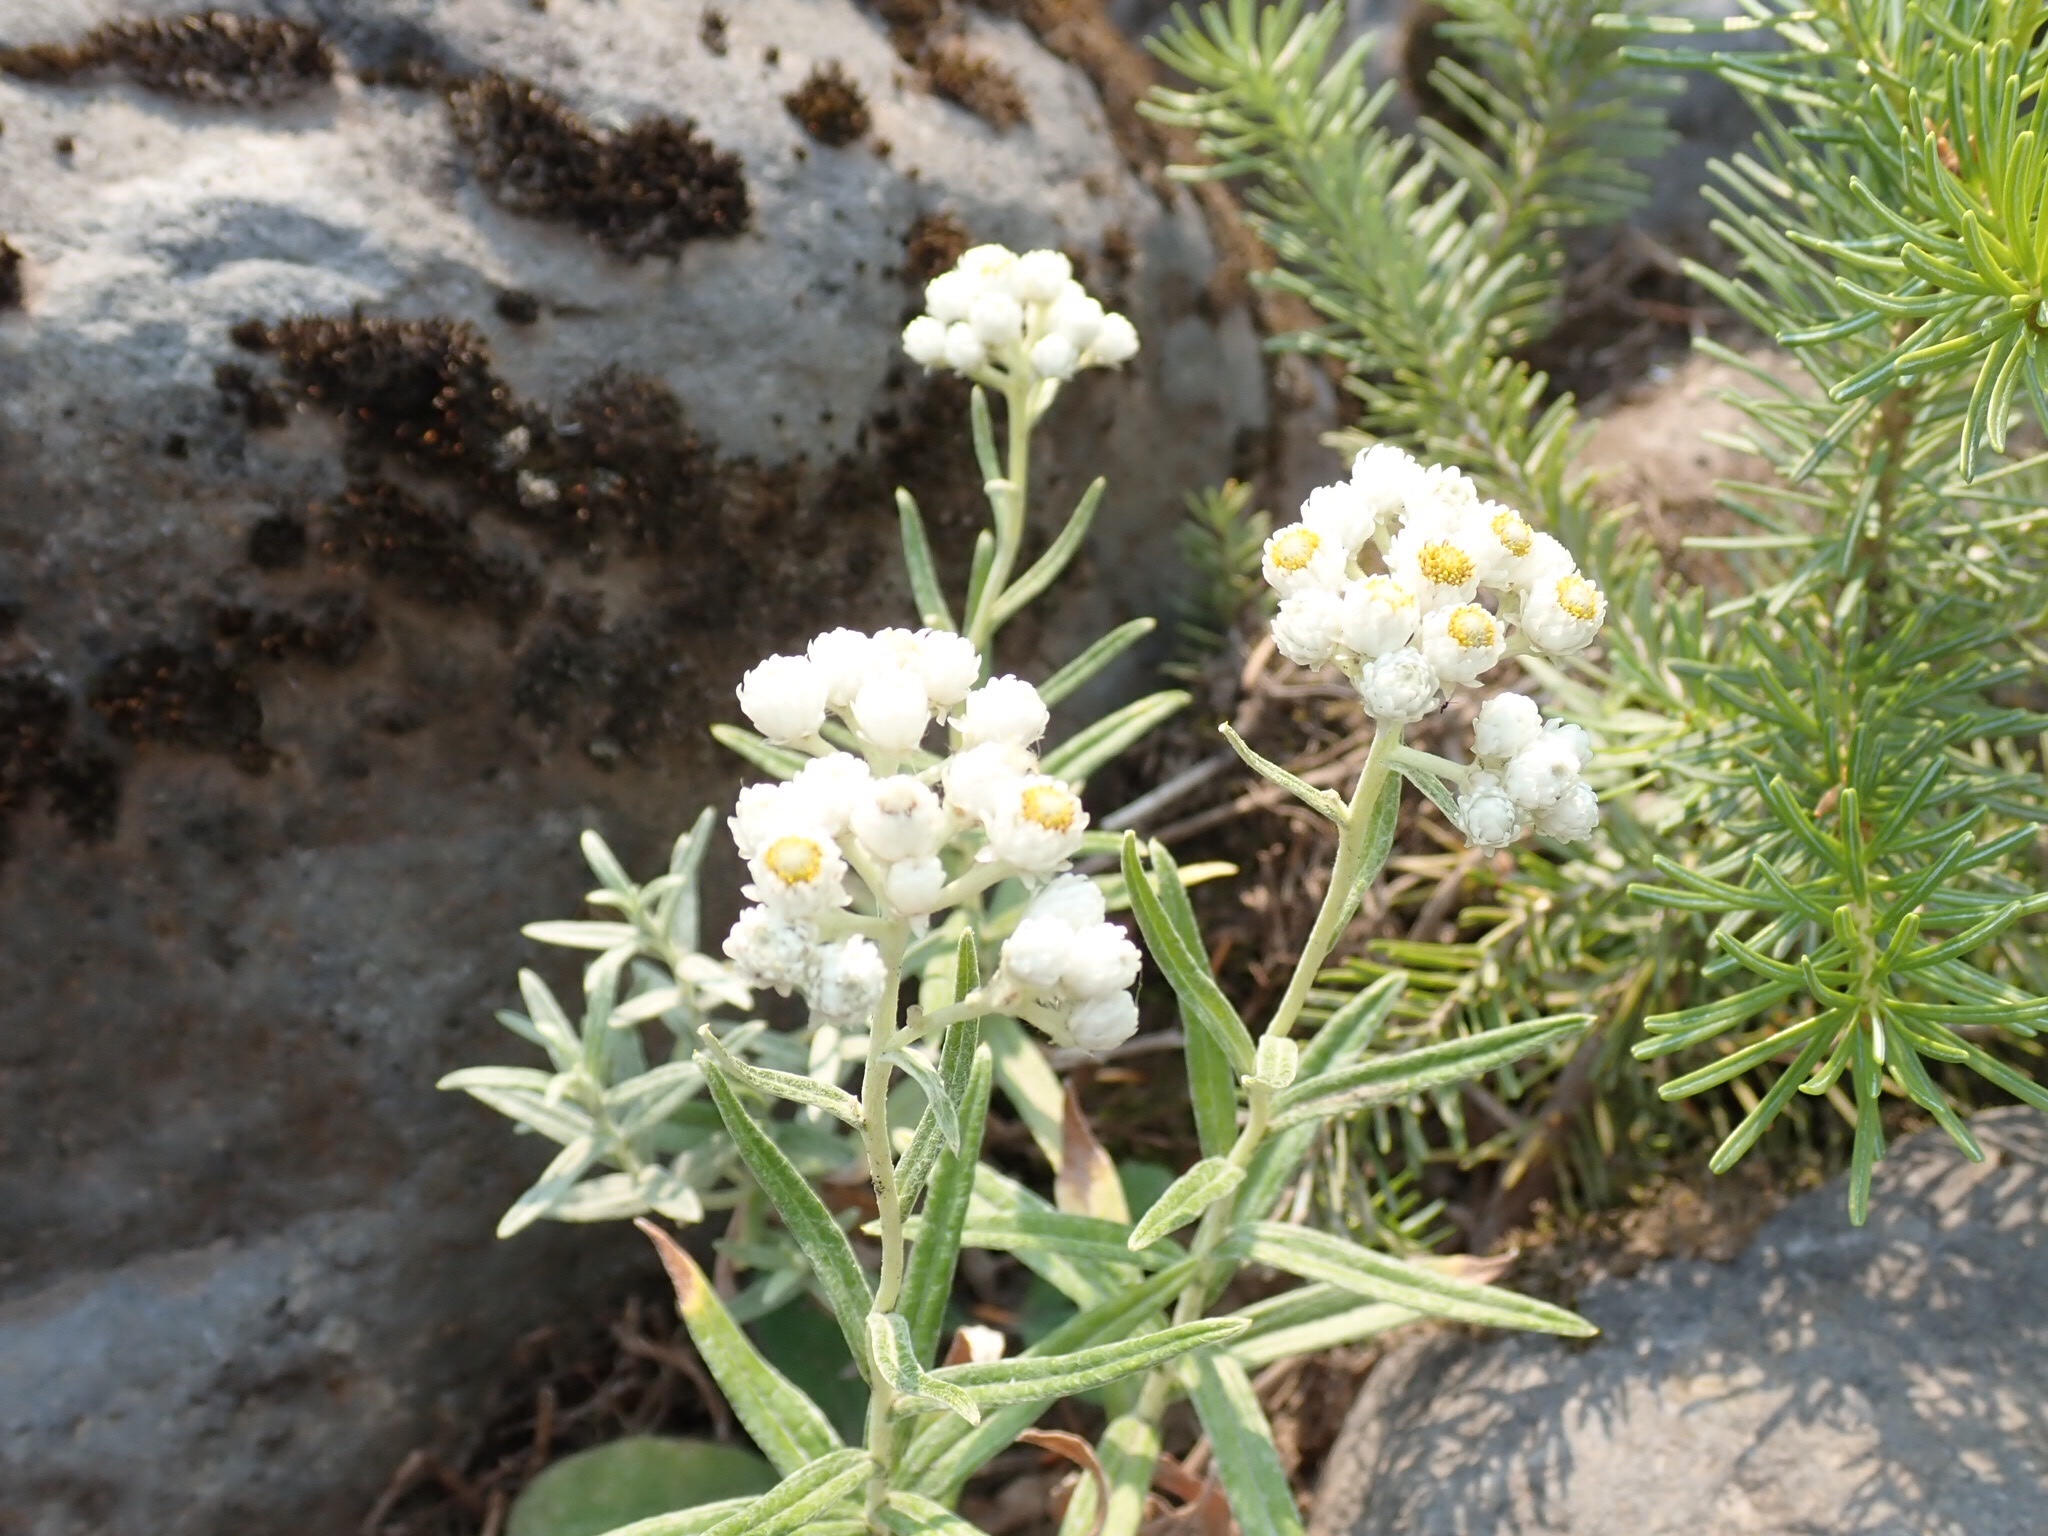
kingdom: Plantae
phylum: Tracheophyta
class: Magnoliopsida
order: Asterales
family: Asteraceae
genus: Anaphalis
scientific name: Anaphalis margaritacea
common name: Pearly everlasting
